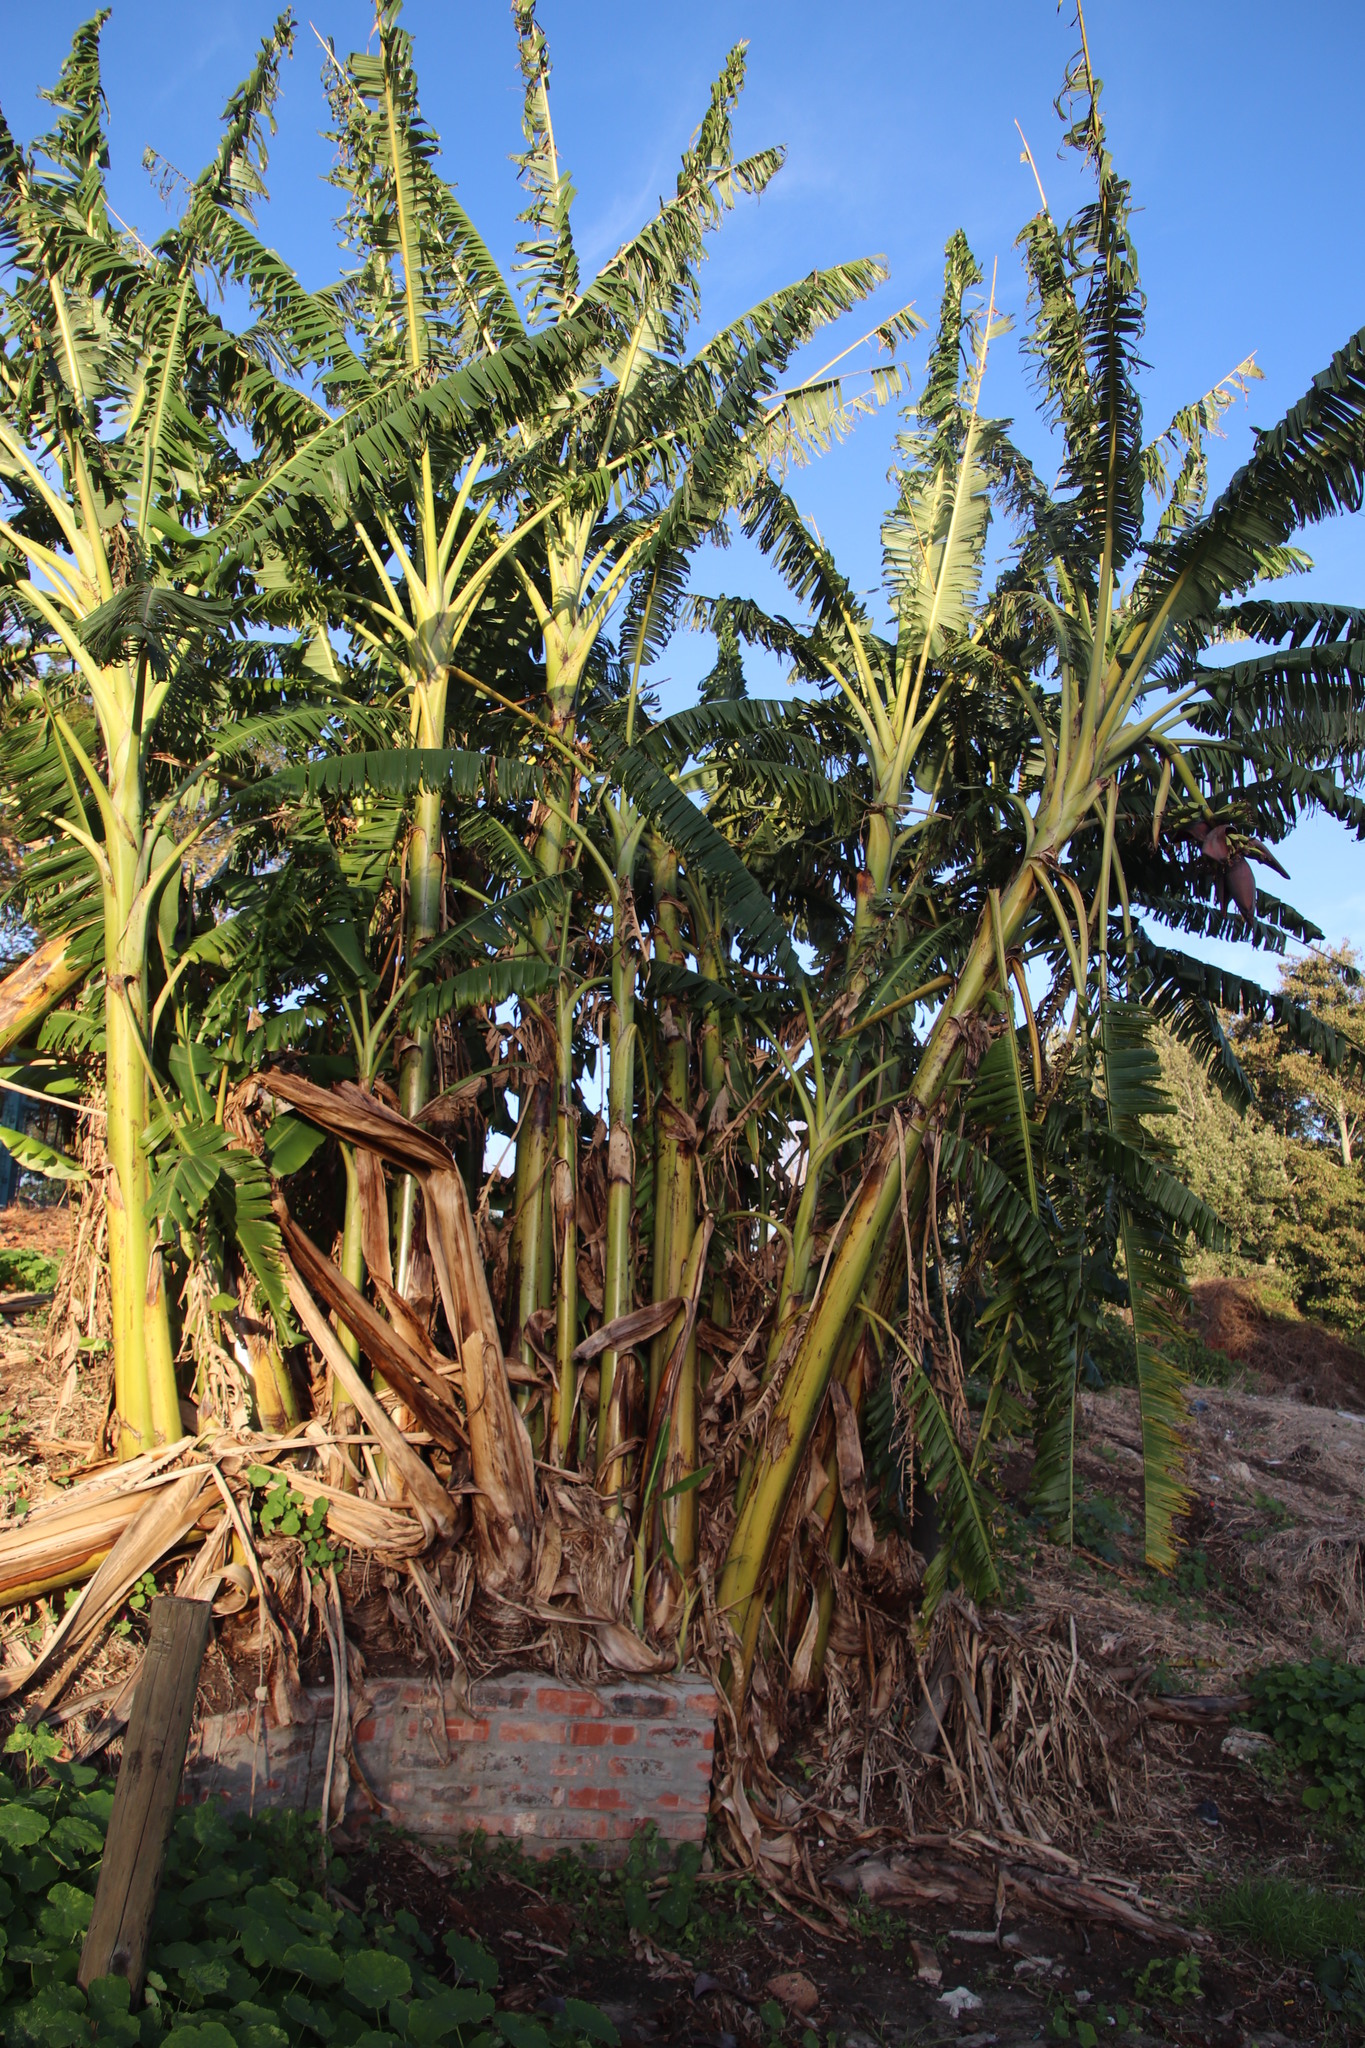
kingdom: Plantae
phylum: Tracheophyta
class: Liliopsida
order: Zingiberales
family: Musaceae
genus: Musa
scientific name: Musa paradisiaca
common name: French plantain
